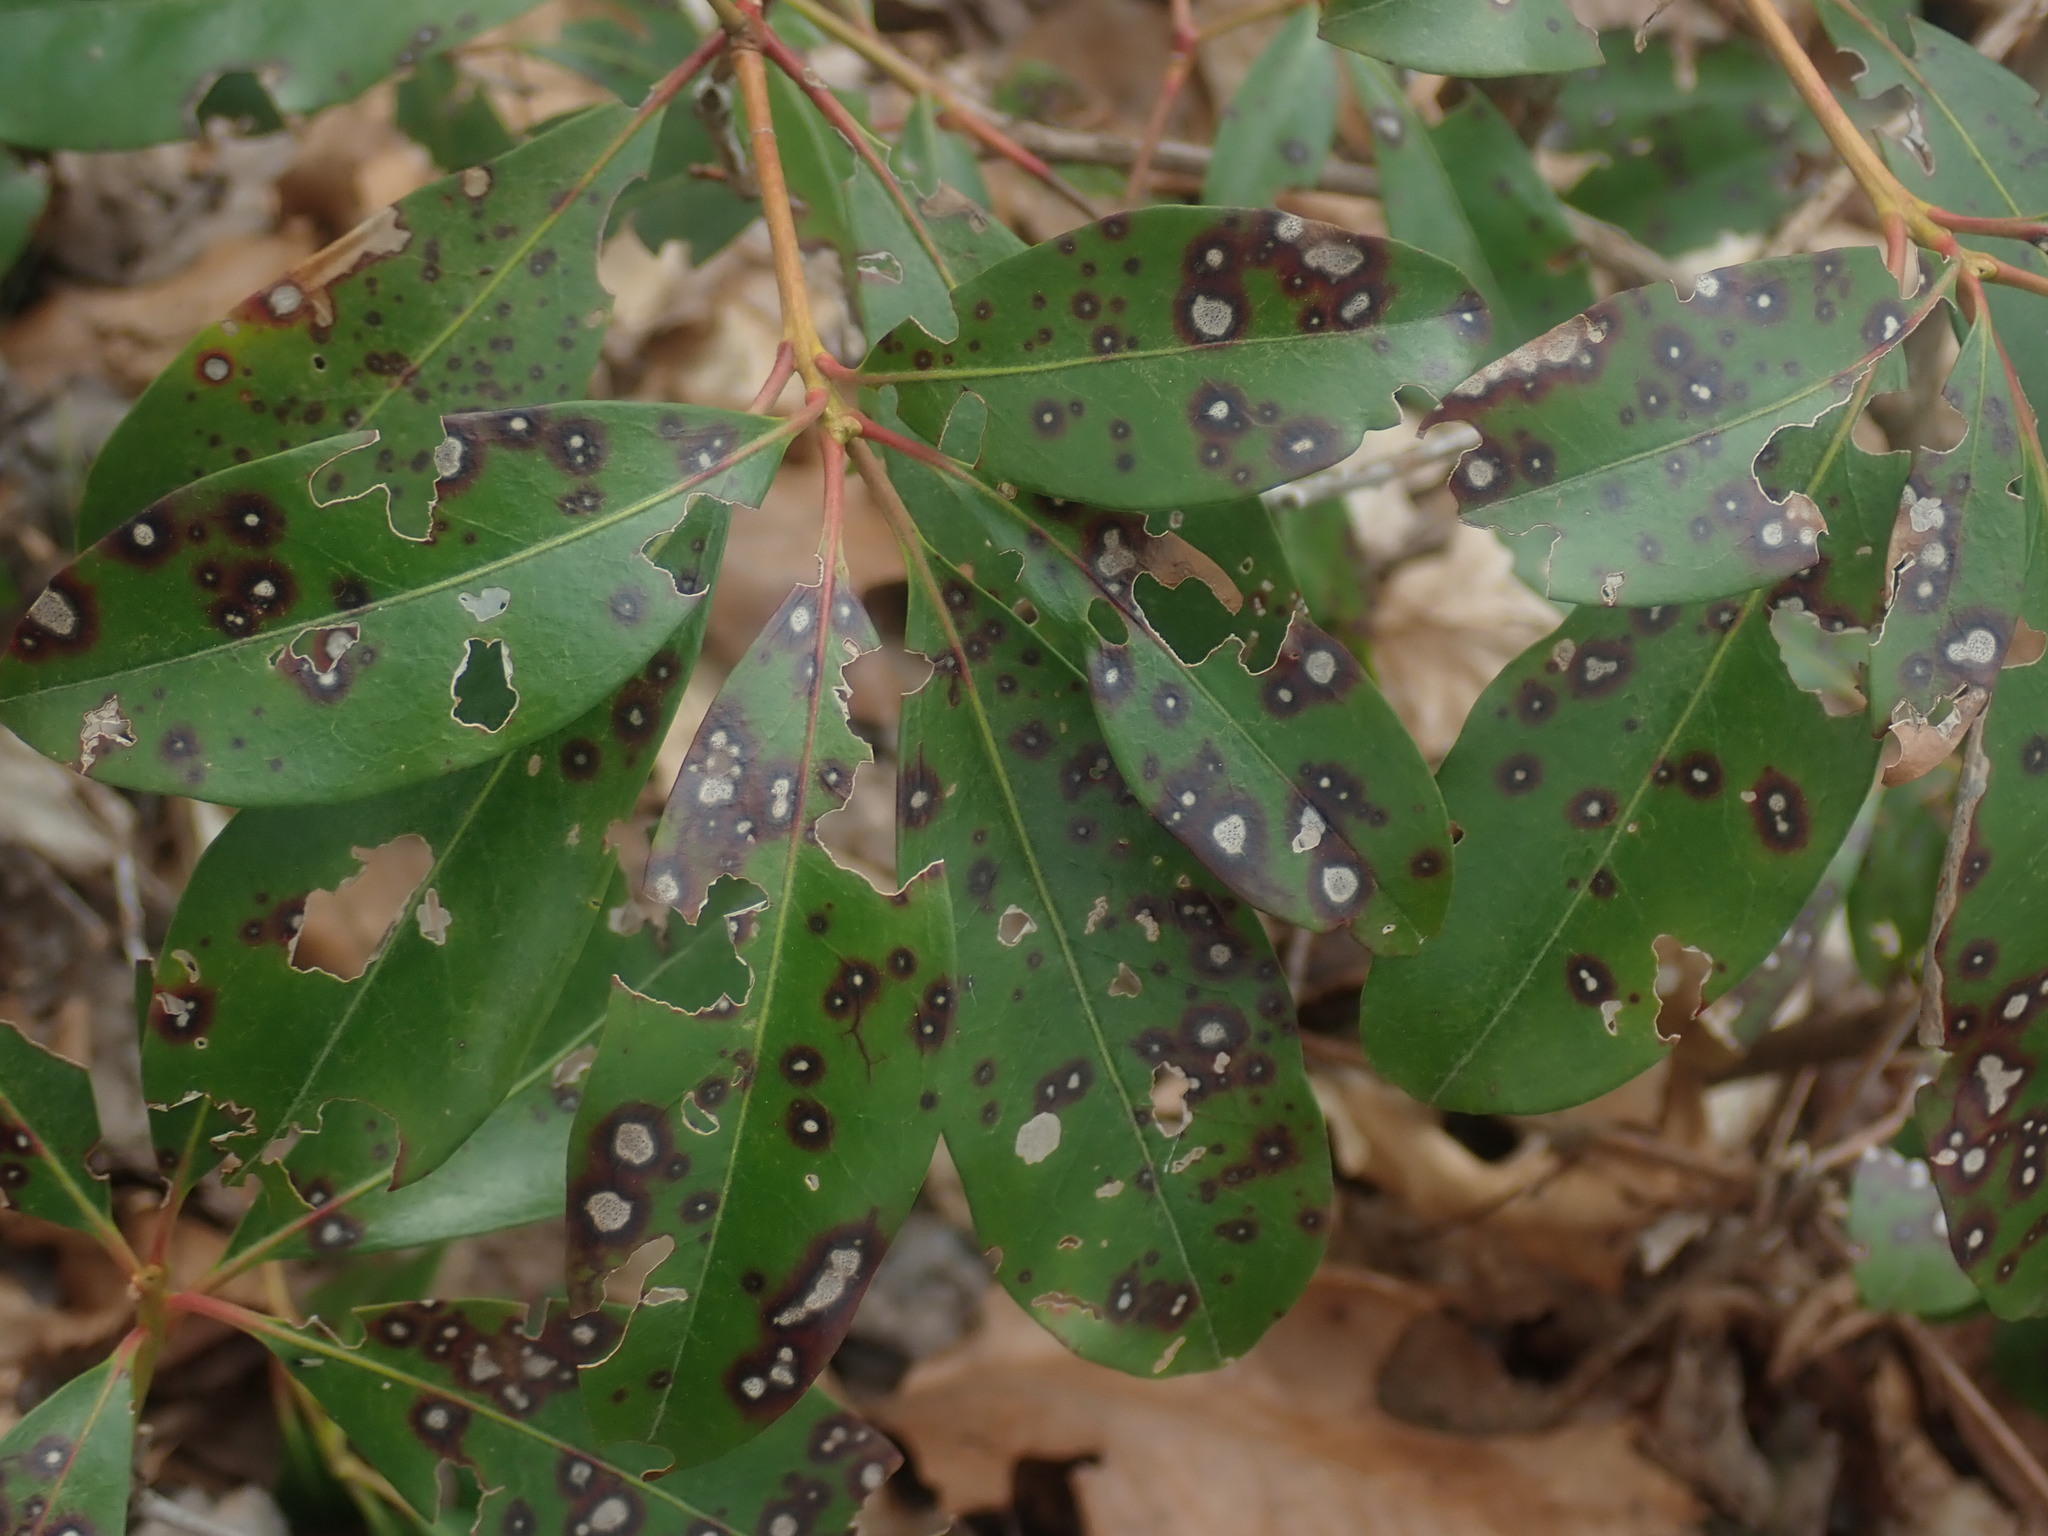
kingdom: Fungi
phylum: Ascomycota
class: Dothideomycetes
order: Mycosphaerellales
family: Mycosphaerellaceae
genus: Mycosphaerella
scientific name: Mycosphaerella colorata
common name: Mountain laurel leaf spot
